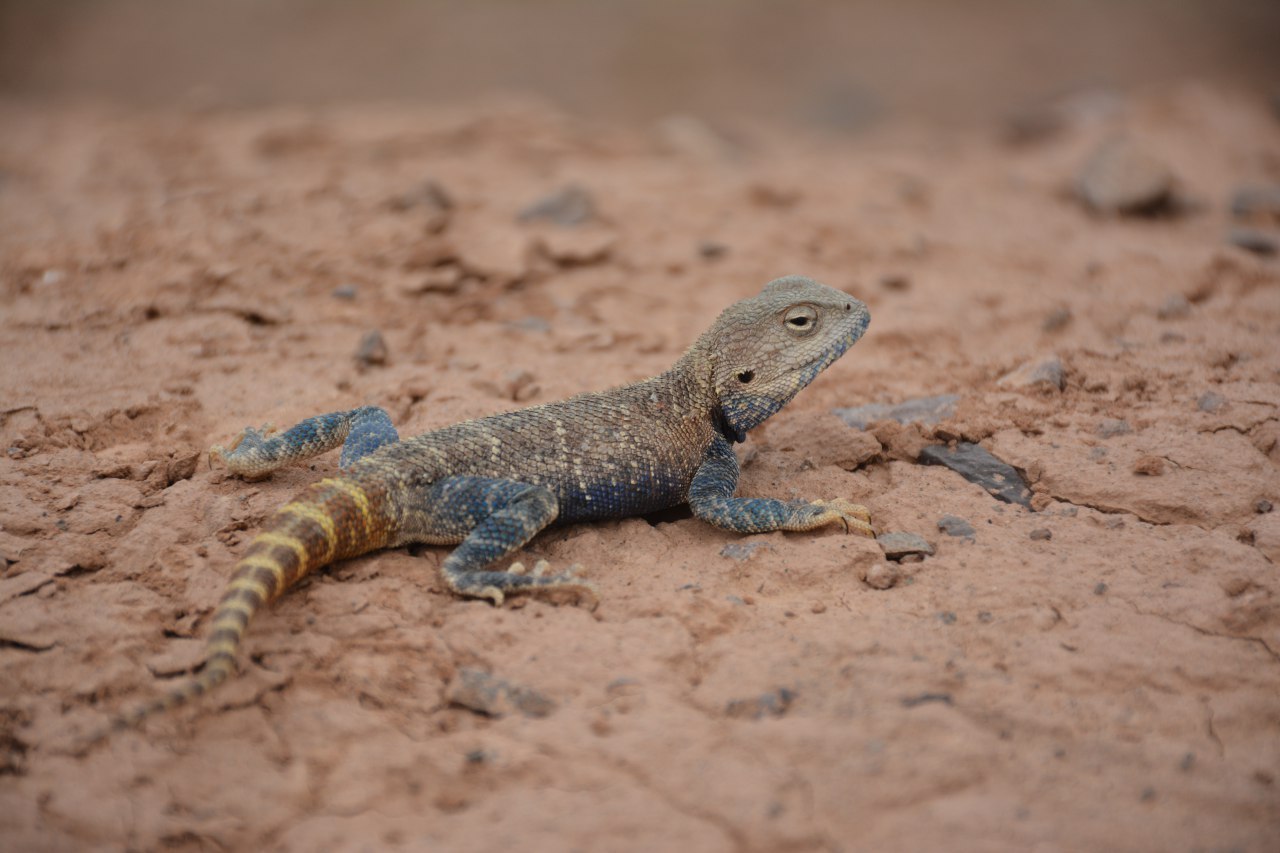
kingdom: Animalia
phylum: Chordata
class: Squamata
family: Agamidae
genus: Trapelus
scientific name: Trapelus sanguinolentus
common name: Steppe agama
